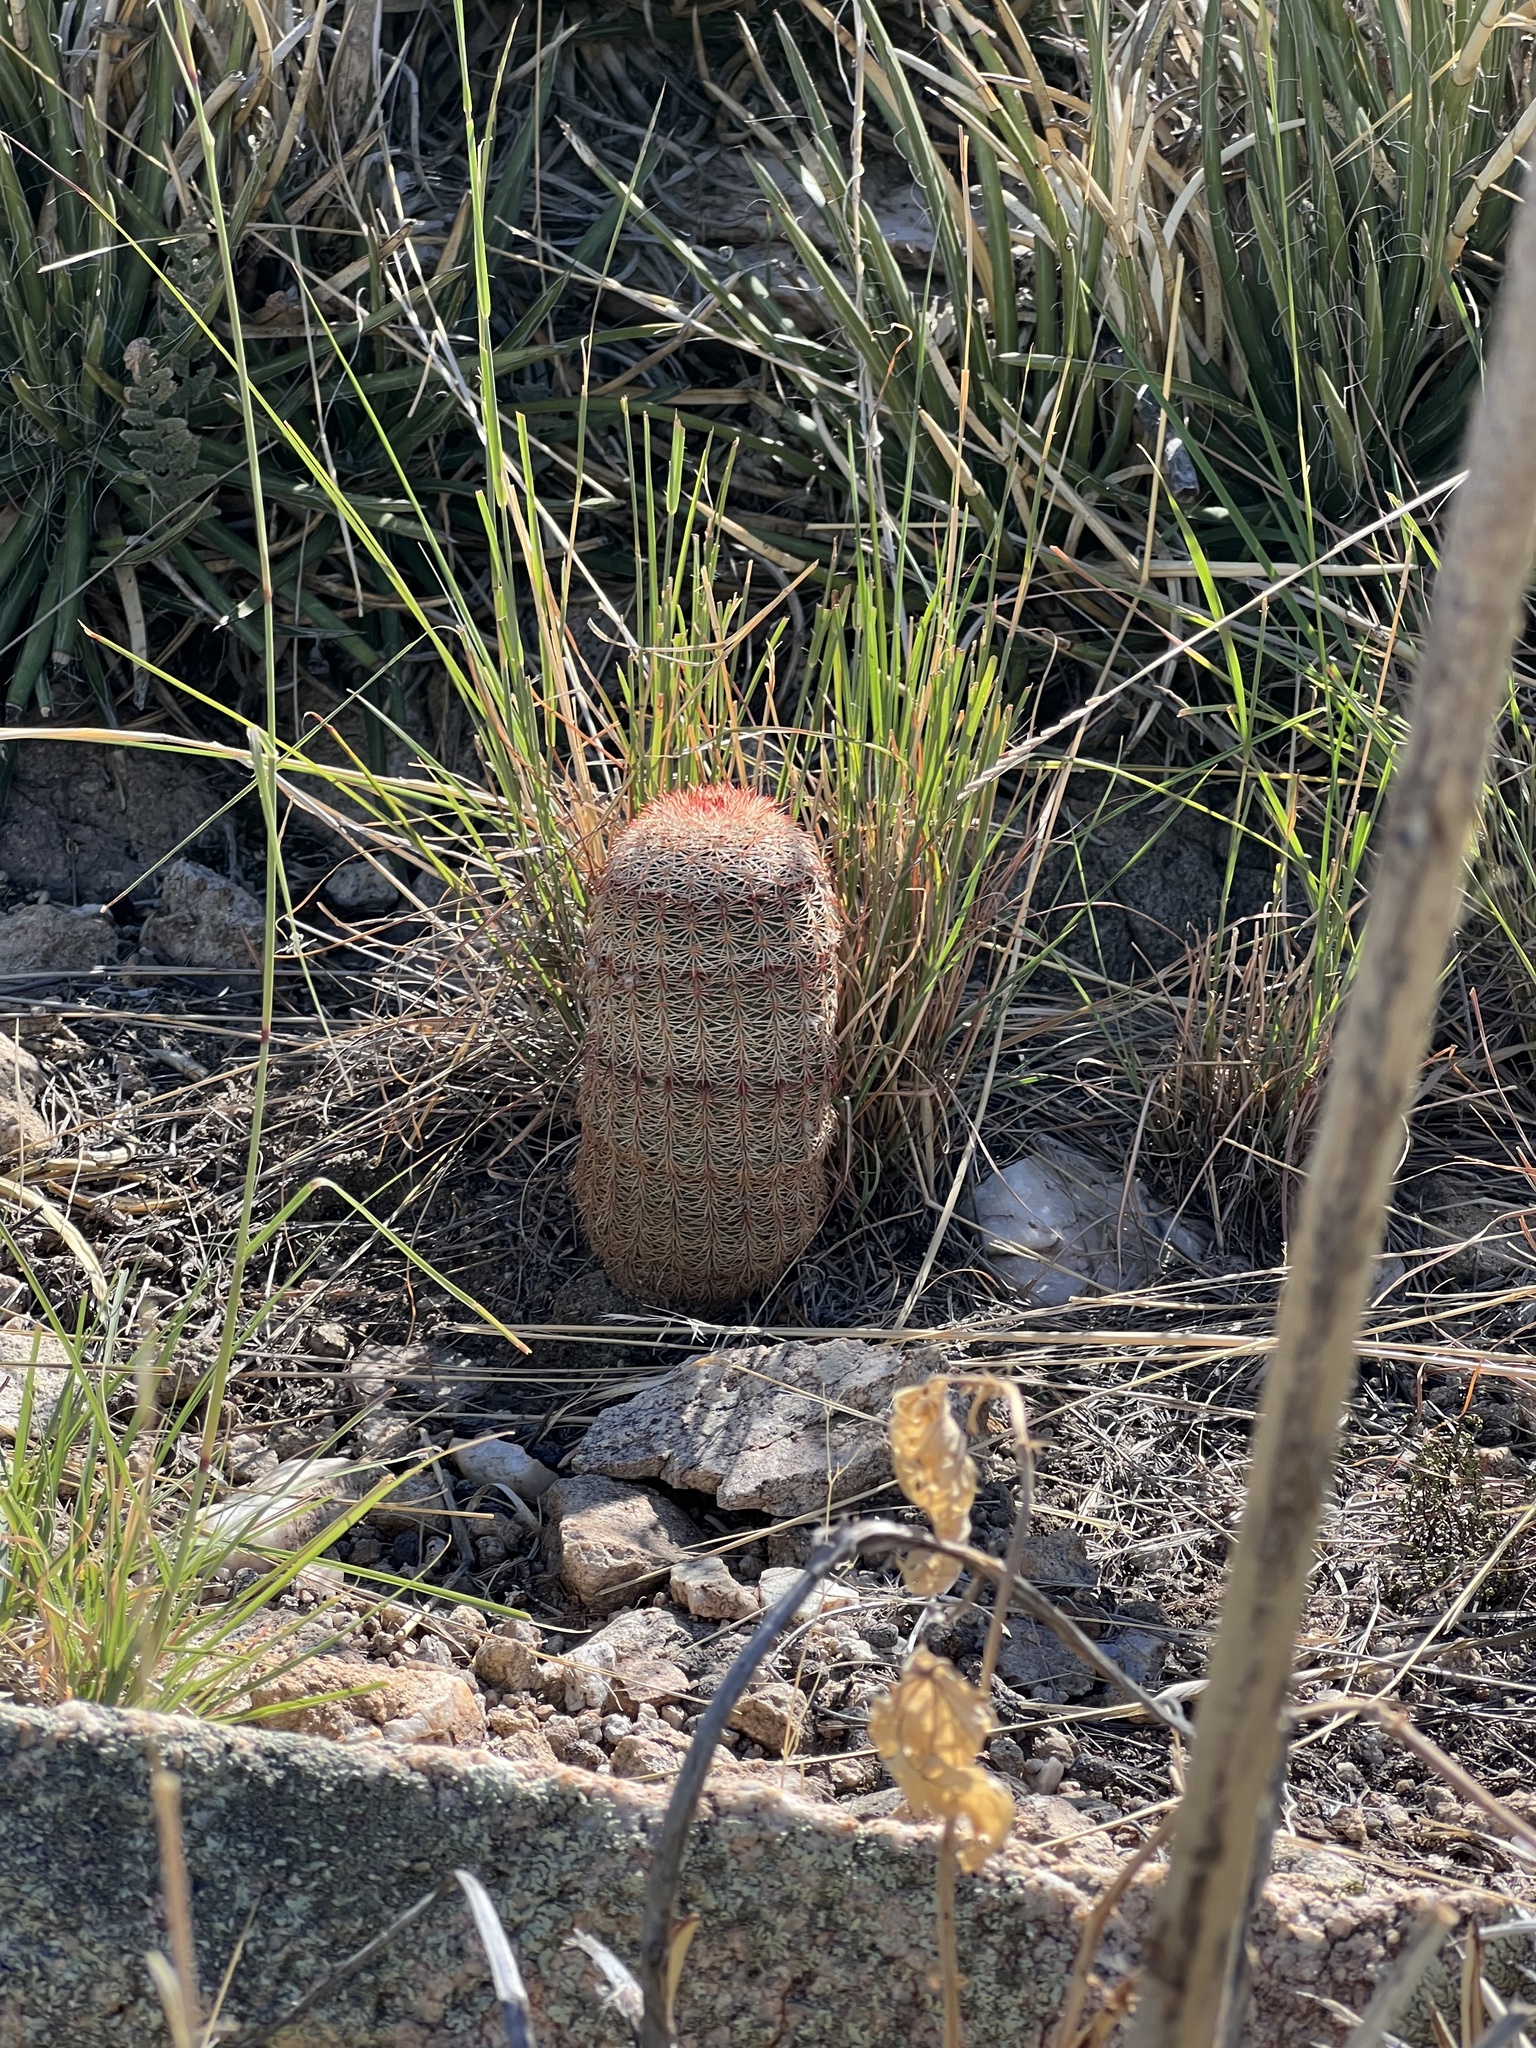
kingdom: Plantae
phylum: Tracheophyta
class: Magnoliopsida
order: Caryophyllales
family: Cactaceae
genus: Echinocereus
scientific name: Echinocereus rigidissimus
